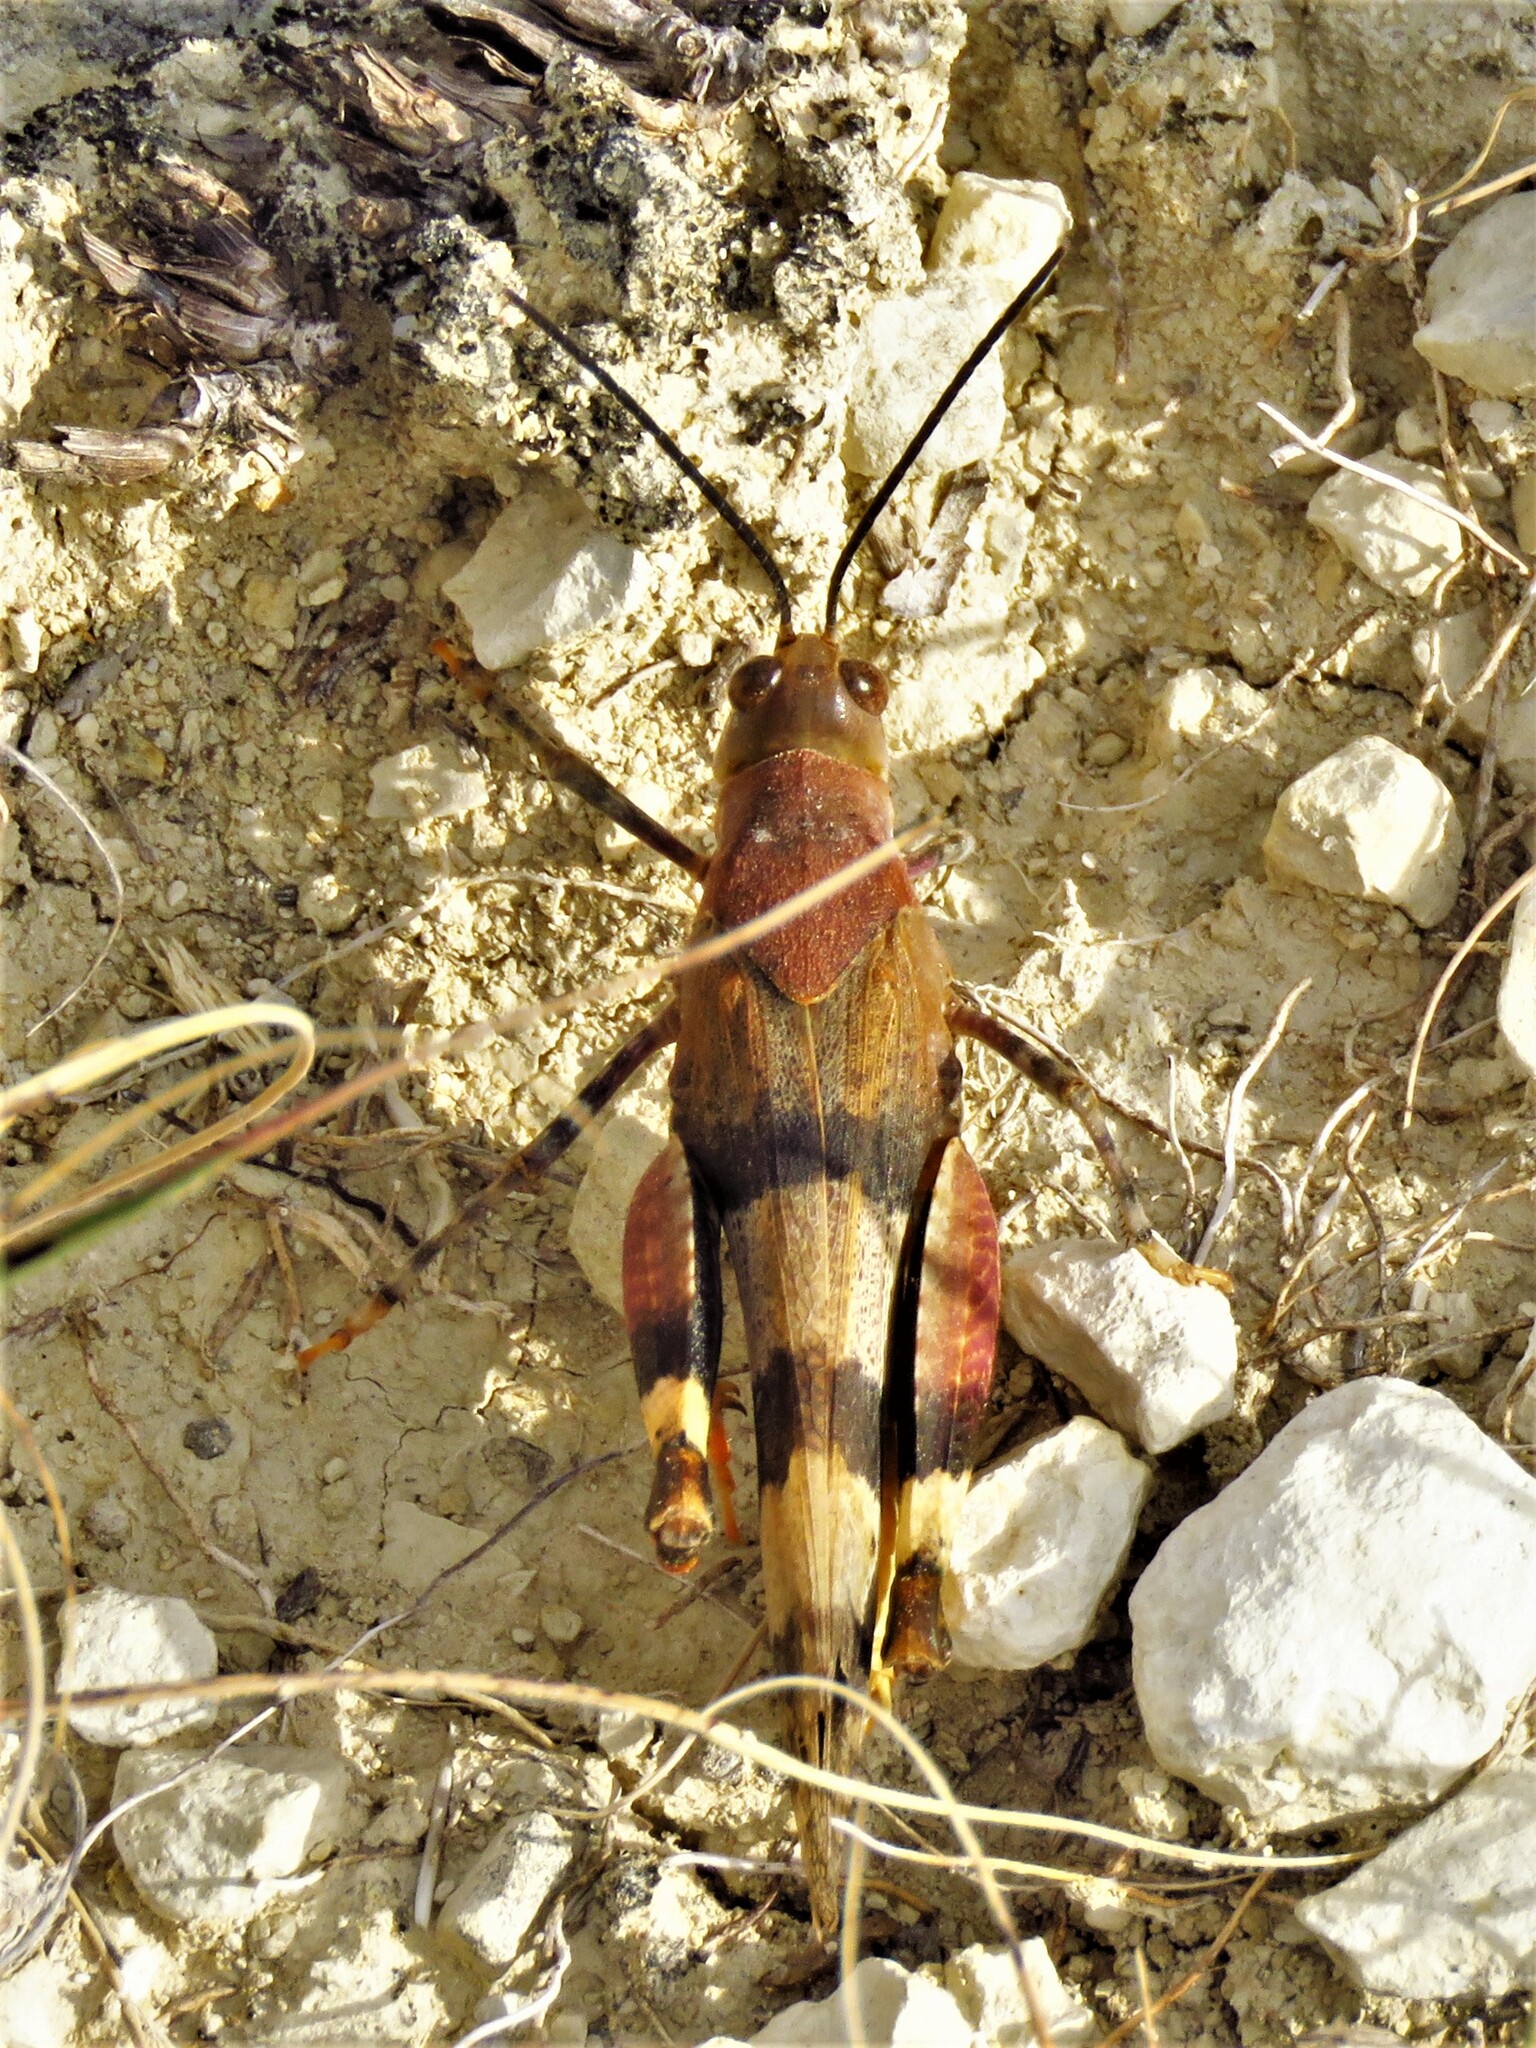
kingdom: Animalia
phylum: Arthropoda
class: Insecta
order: Orthoptera
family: Acrididae
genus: Hadrotettix
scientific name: Hadrotettix trifasciatus
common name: Threebanded grasshopper
